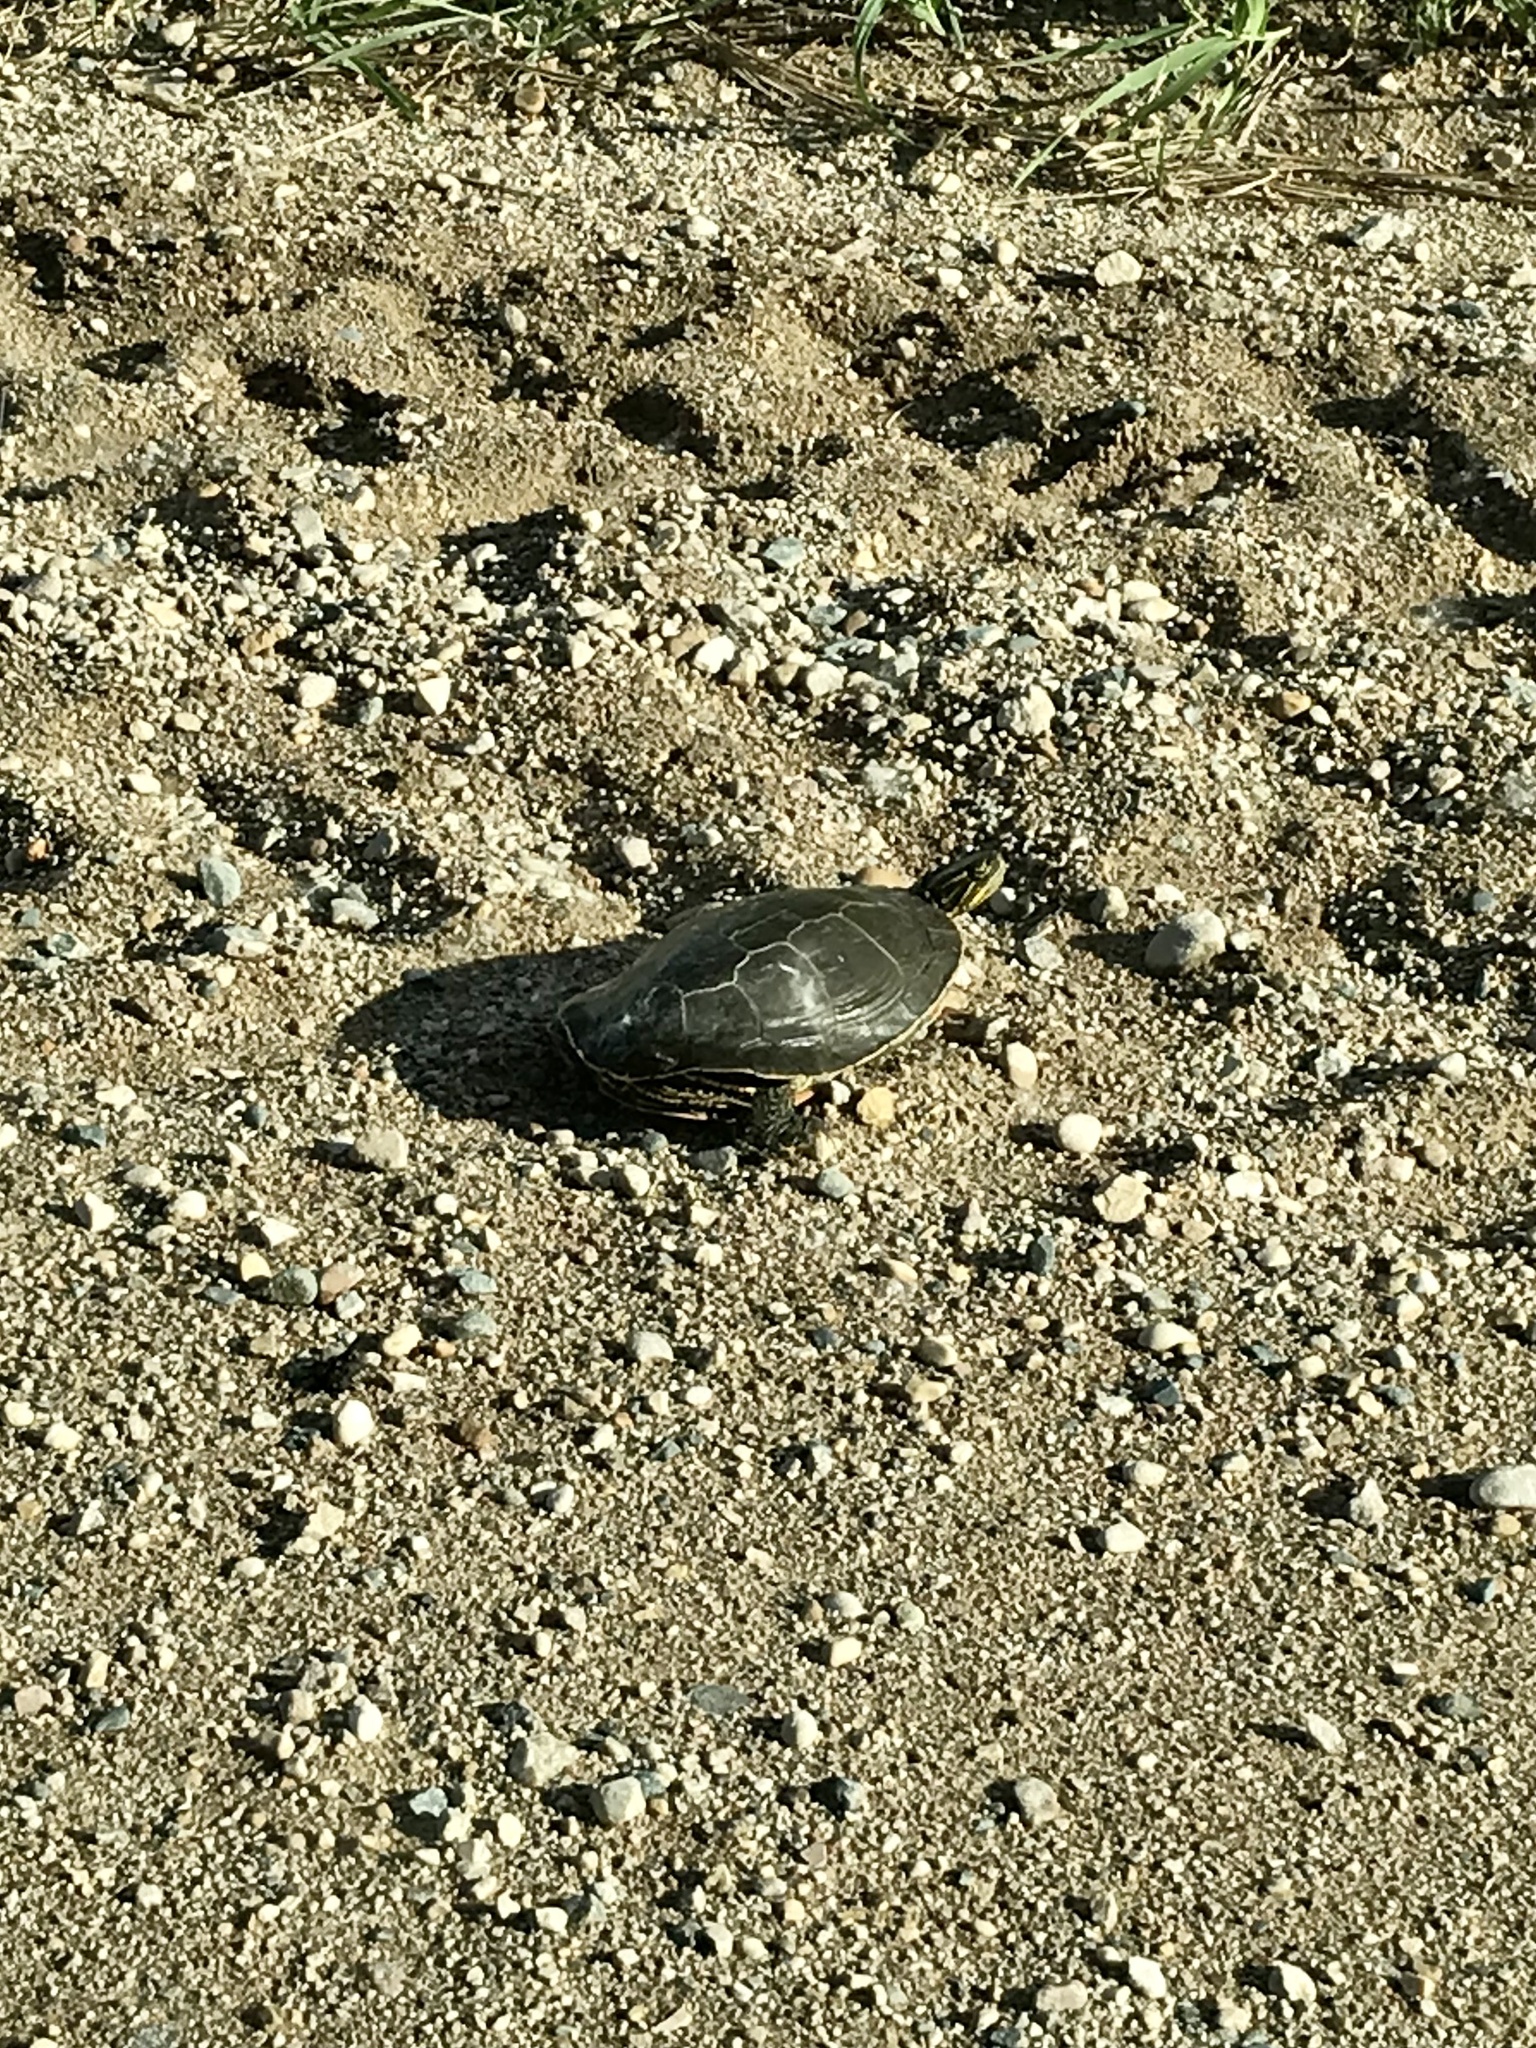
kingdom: Animalia
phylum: Chordata
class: Testudines
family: Emydidae
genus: Chrysemys
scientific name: Chrysemys picta
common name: Painted turtle
